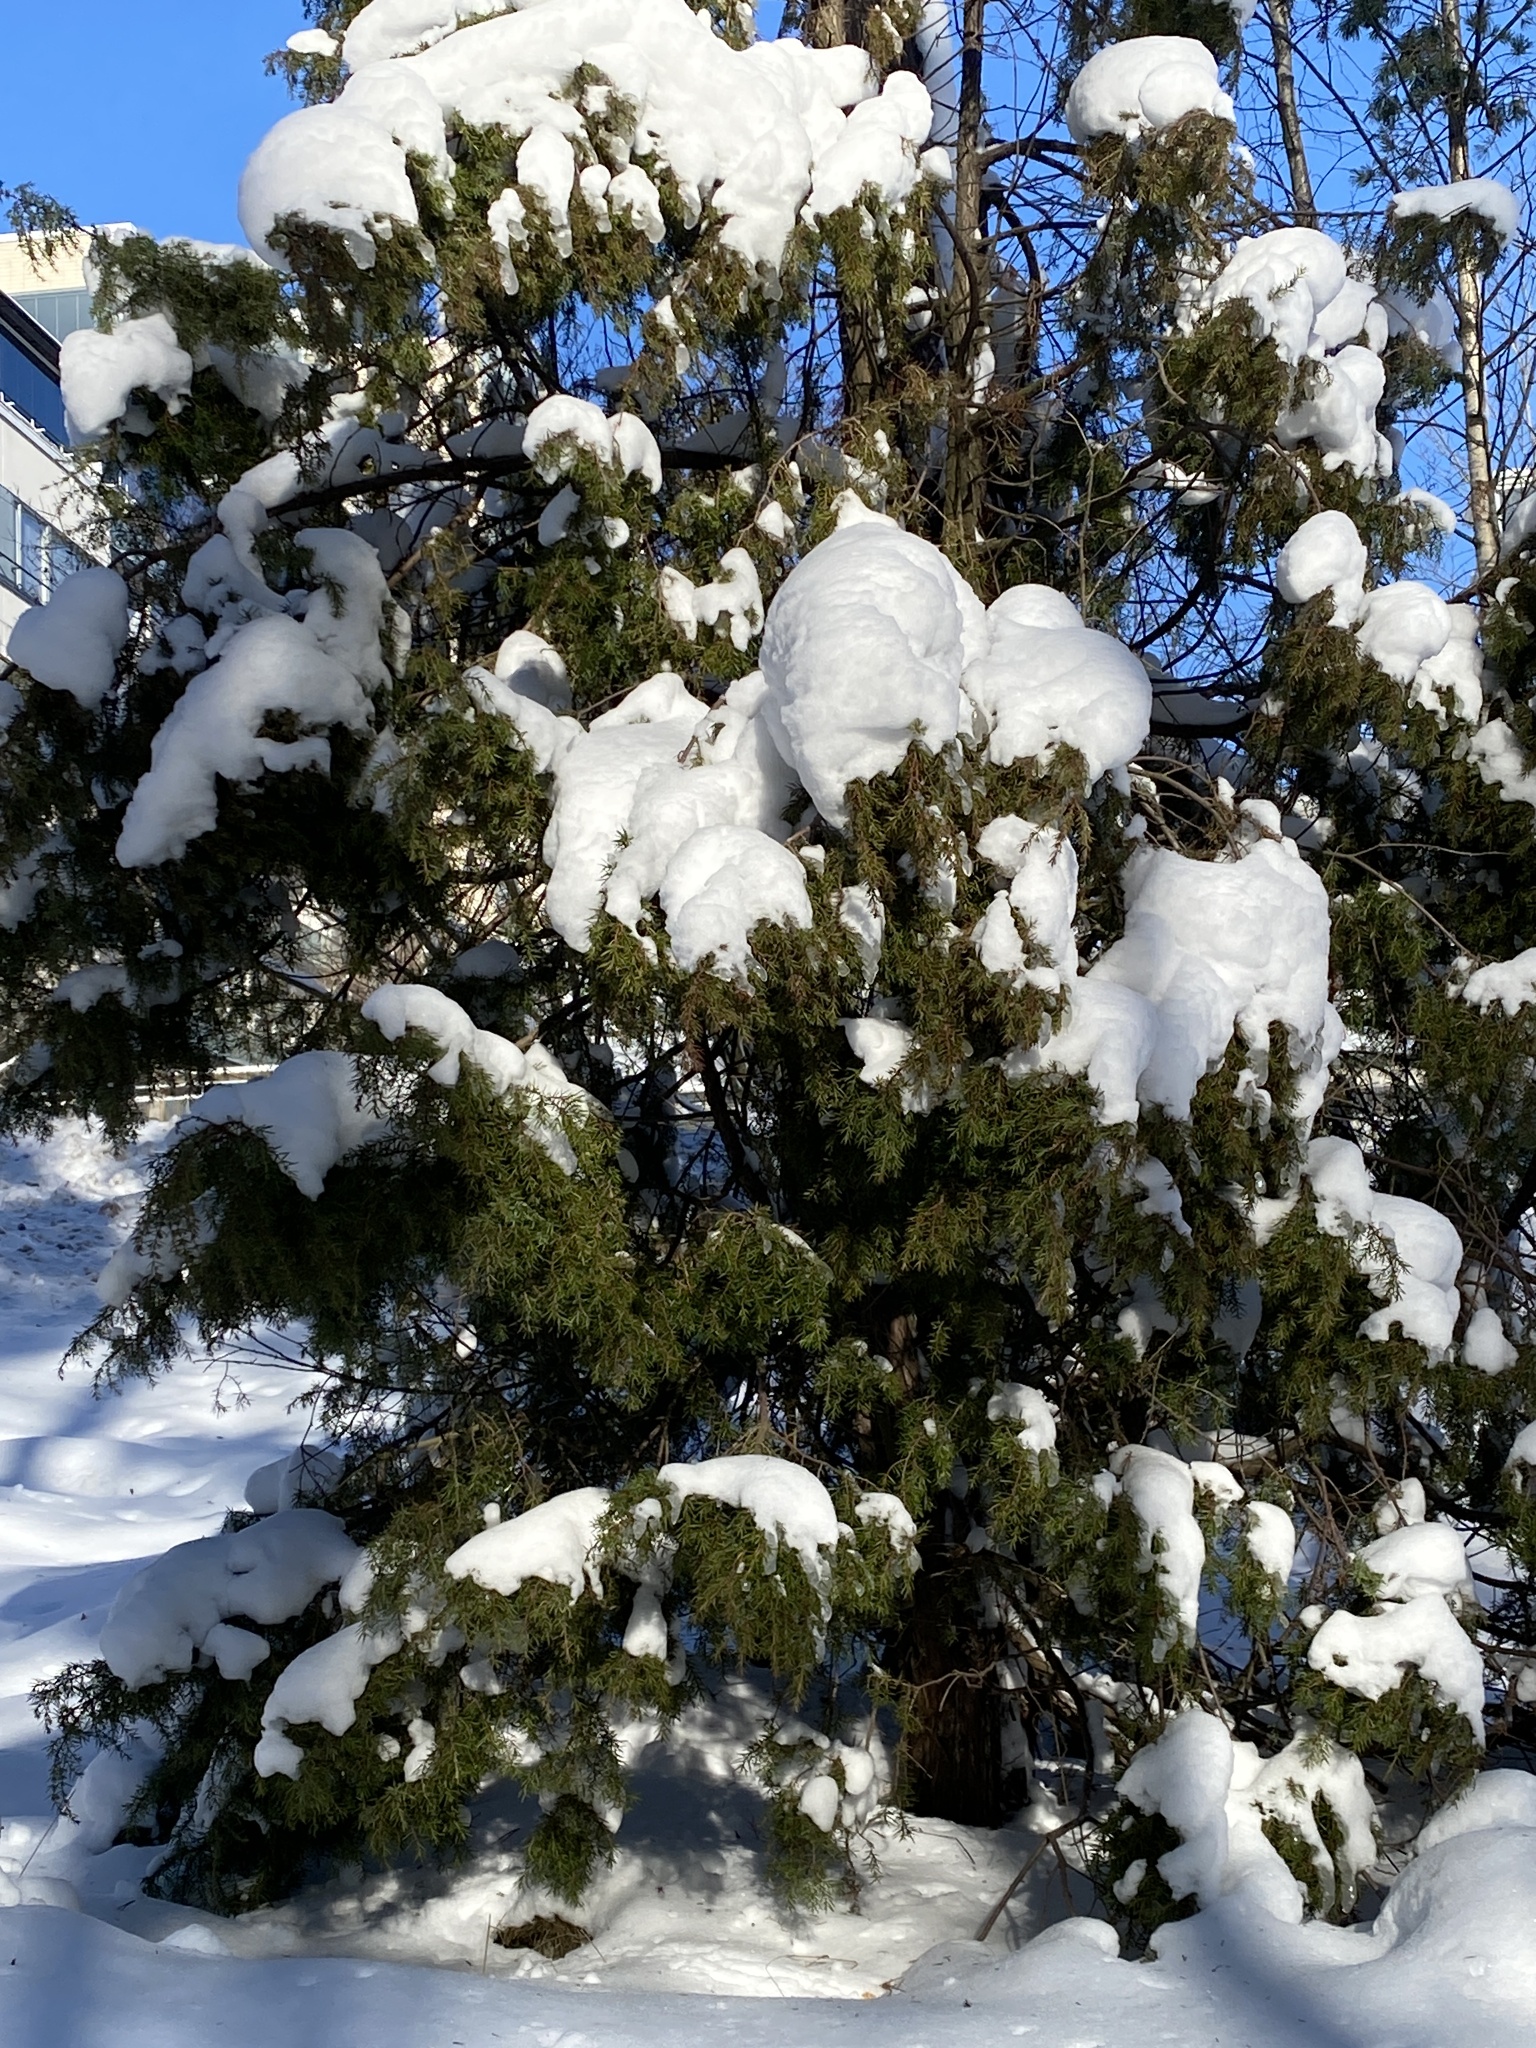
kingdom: Plantae
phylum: Tracheophyta
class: Pinopsida
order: Pinales
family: Cupressaceae
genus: Juniperus
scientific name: Juniperus communis
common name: Common juniper
